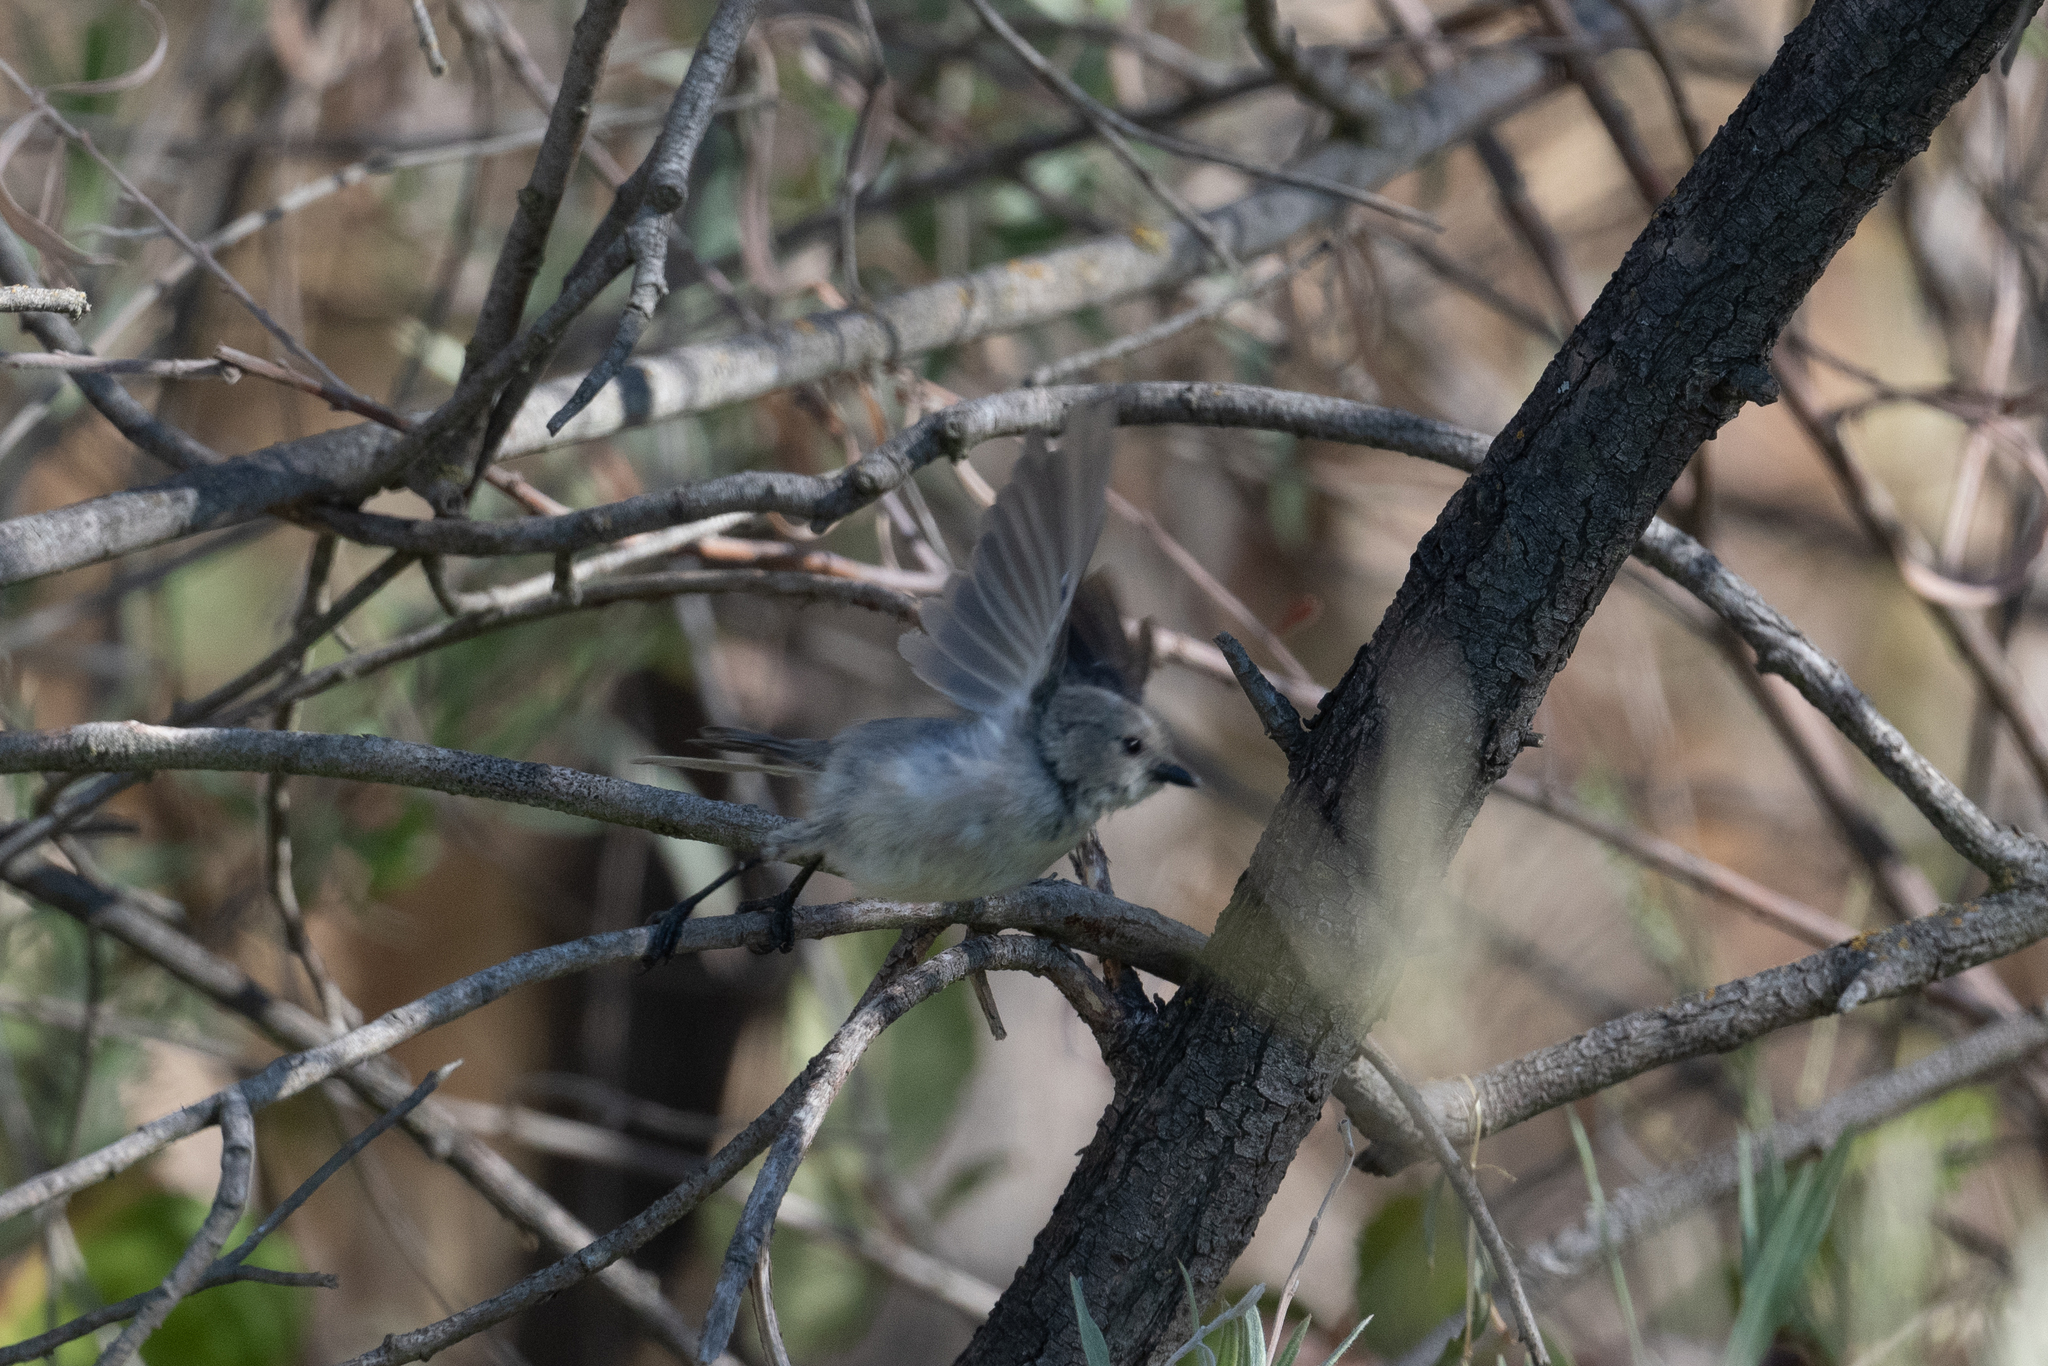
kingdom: Animalia
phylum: Chordata
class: Aves
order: Passeriformes
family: Aegithalidae
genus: Psaltriparus
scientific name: Psaltriparus minimus
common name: American bushtit
